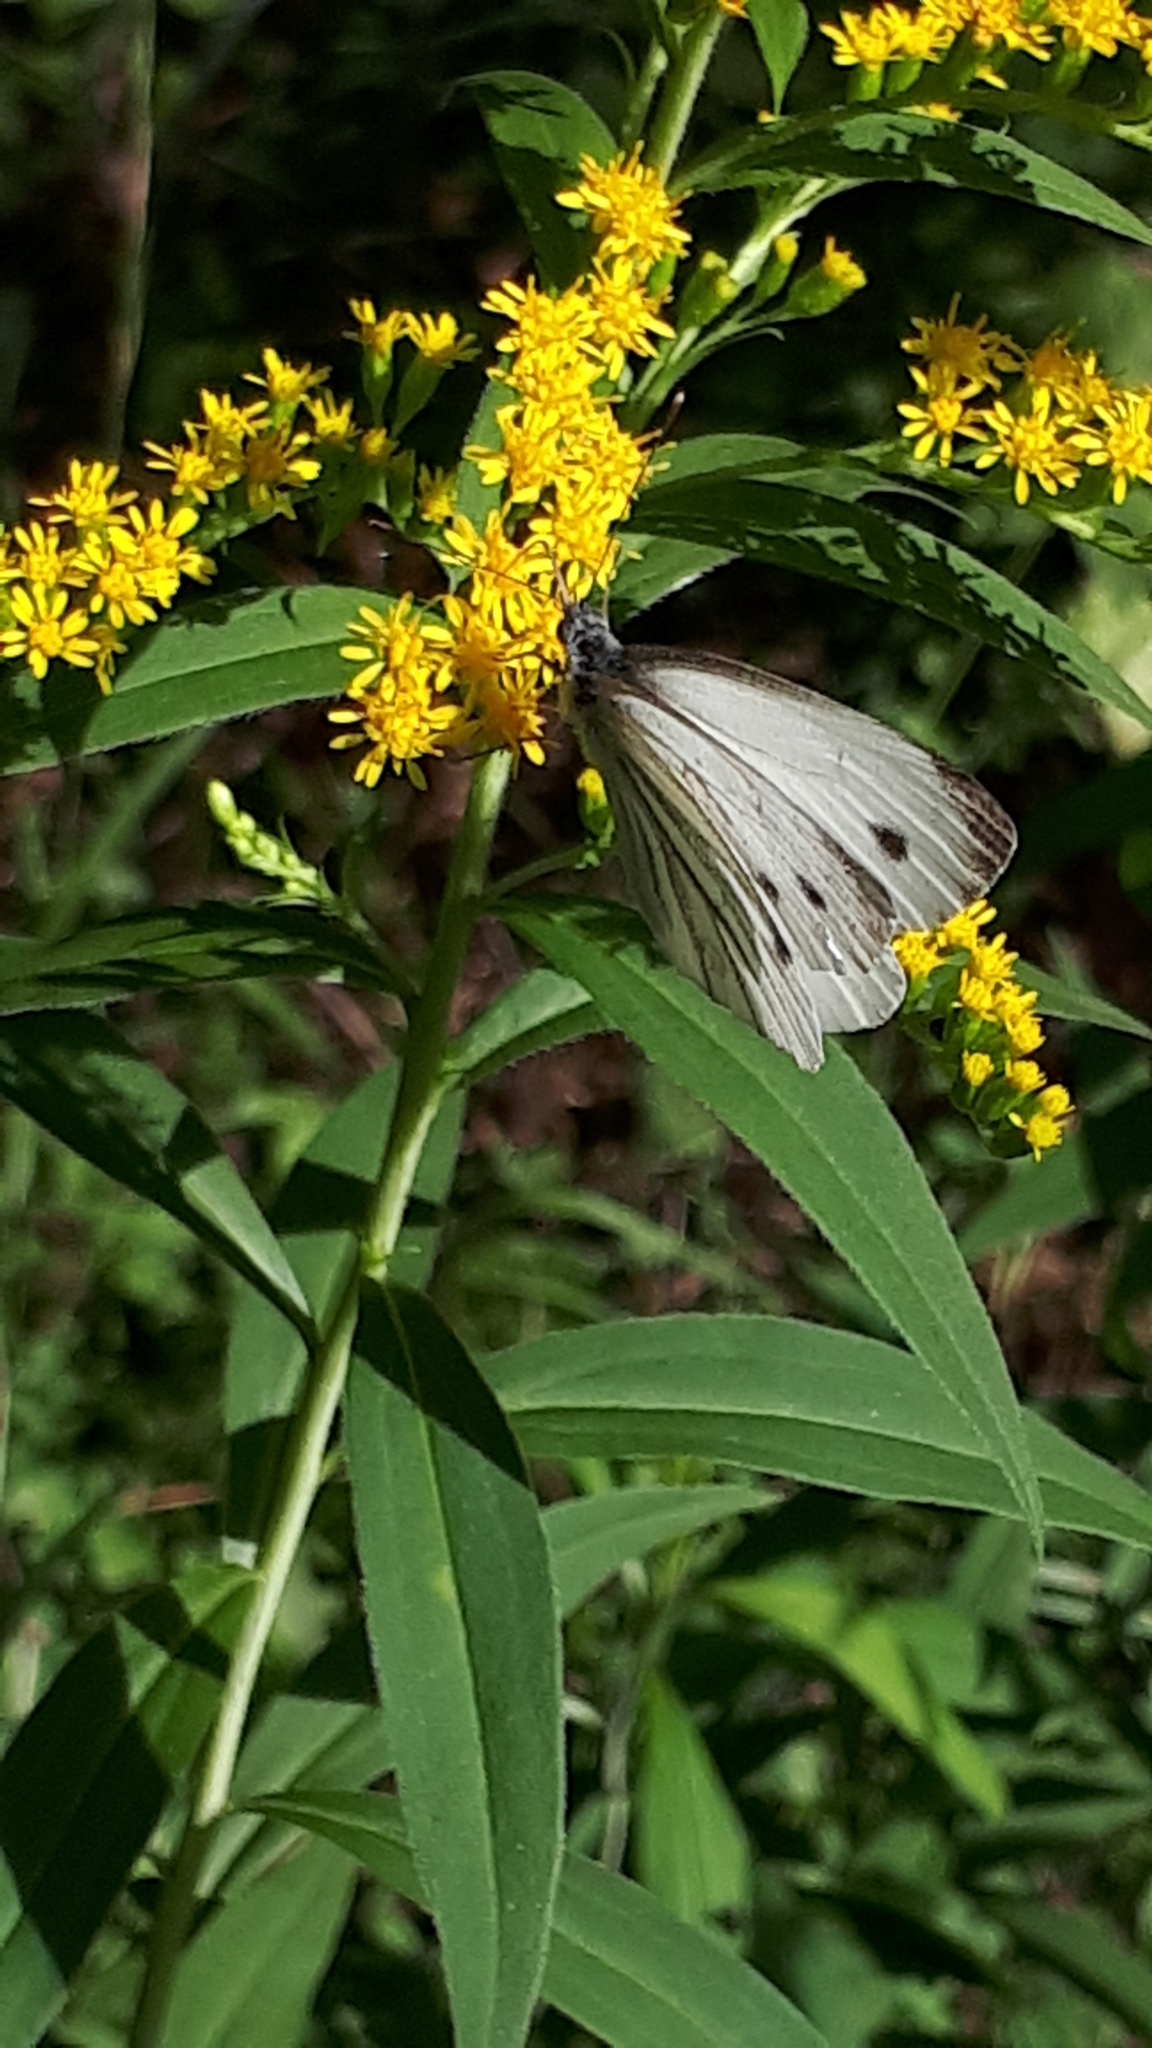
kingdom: Animalia
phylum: Arthropoda
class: Insecta
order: Lepidoptera
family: Pieridae
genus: Pieris
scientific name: Pieris napi
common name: Green-veined white
